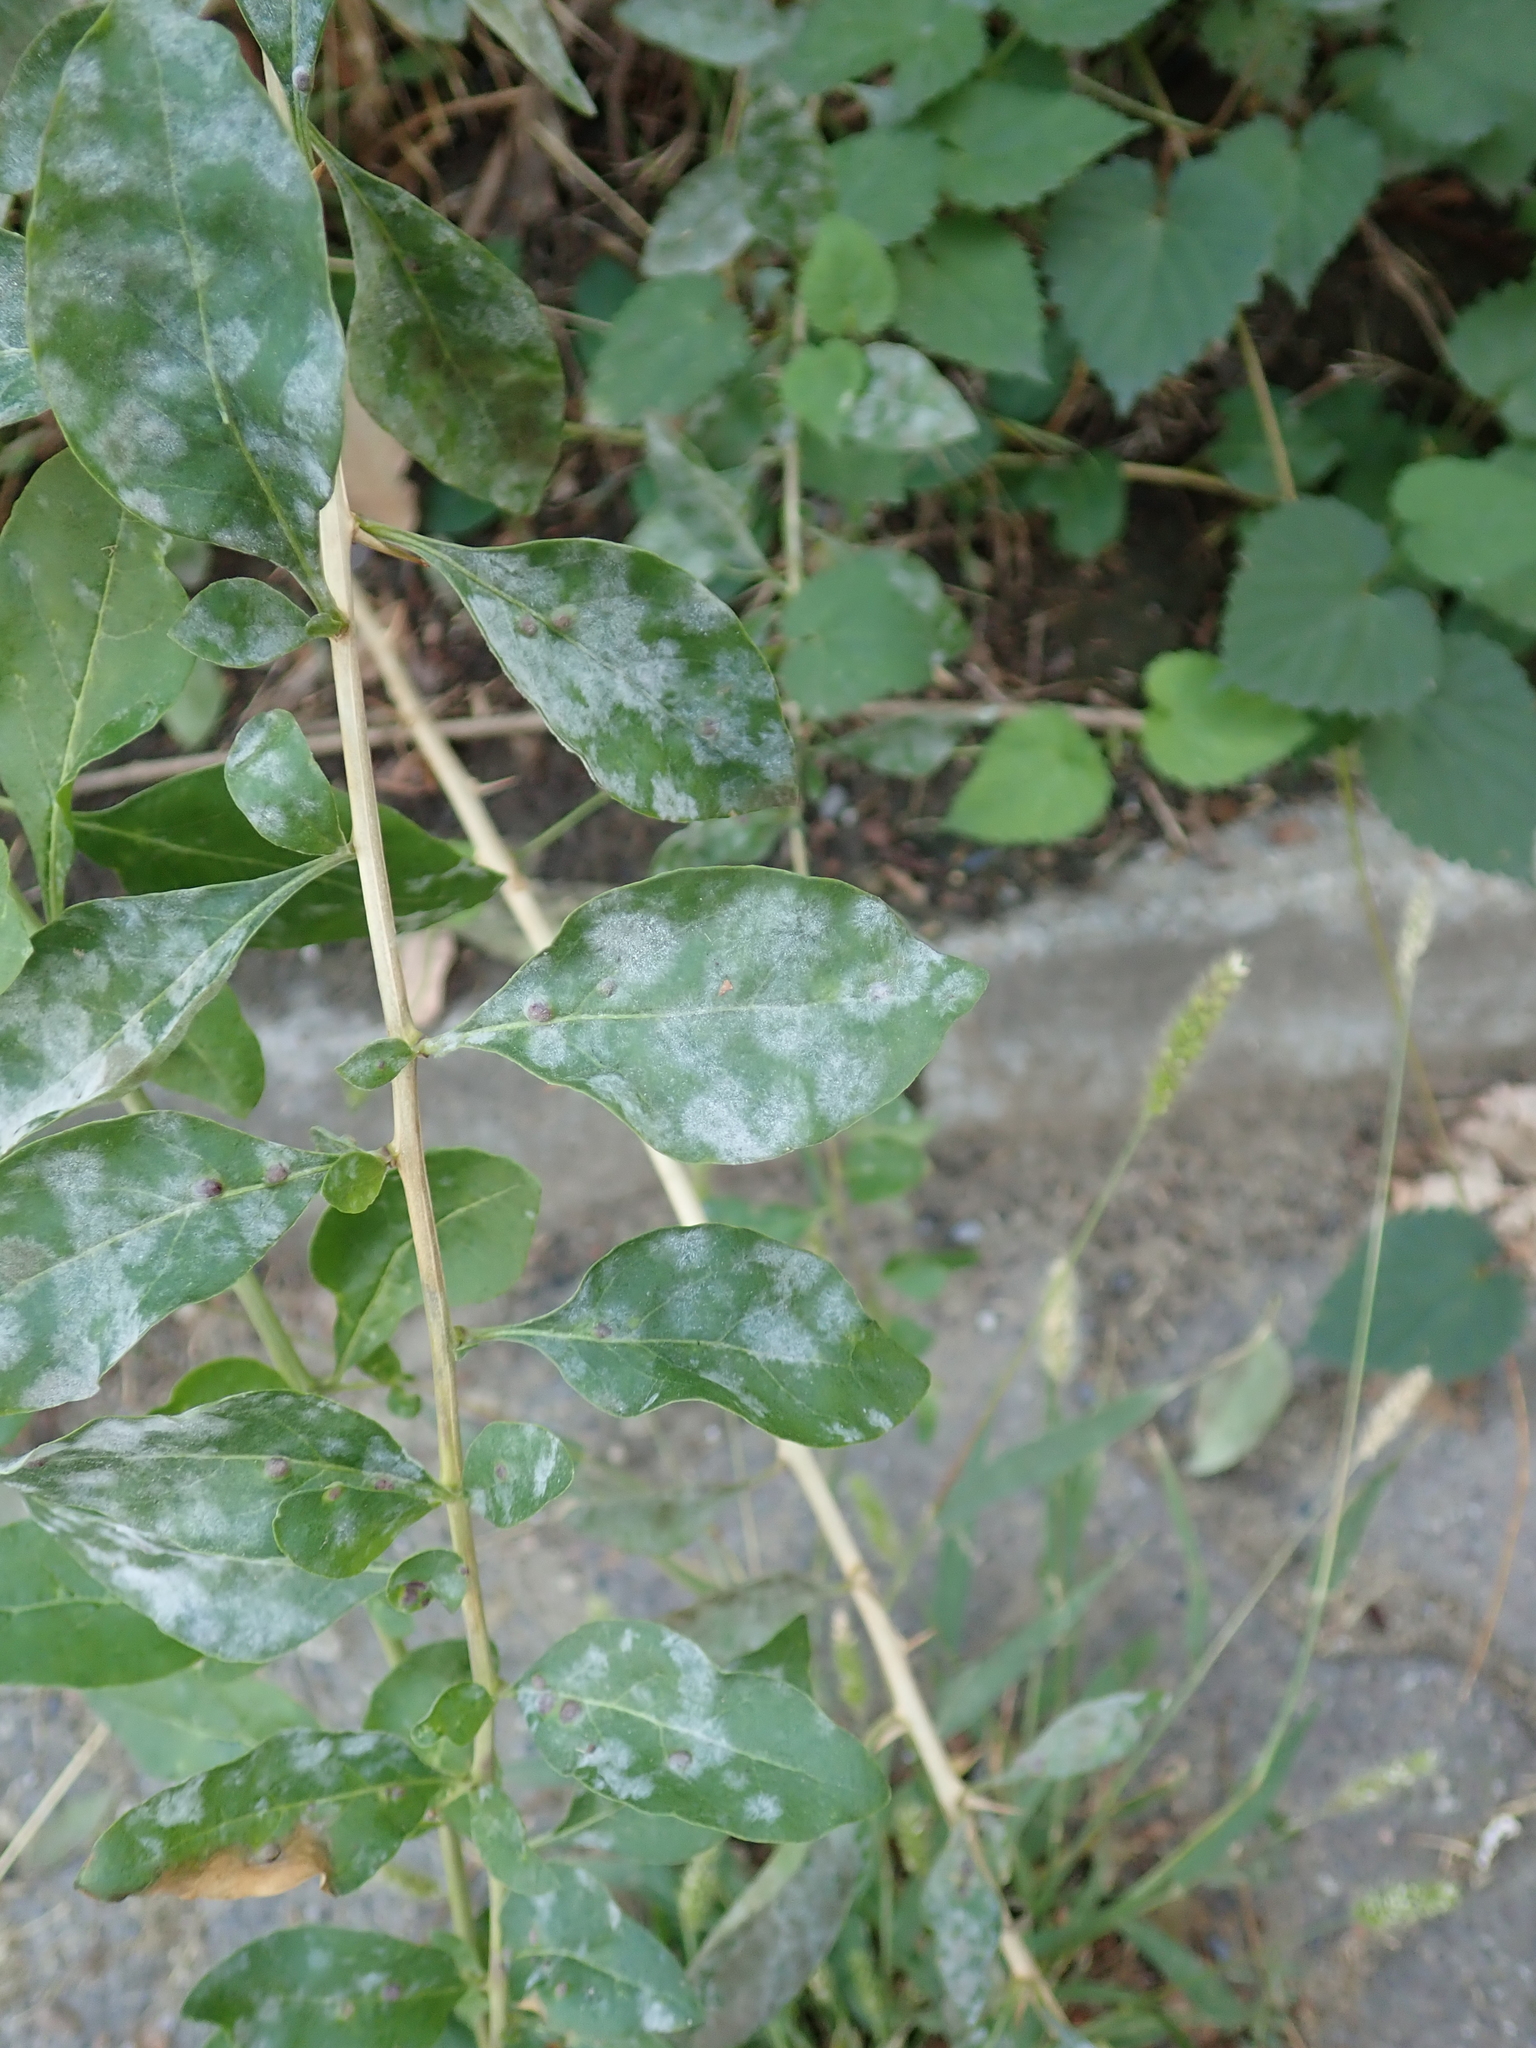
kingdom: Fungi
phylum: Ascomycota
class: Leotiomycetes
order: Helotiales
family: Erysiphaceae
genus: Erysiphe
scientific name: Erysiphe mougeotii
